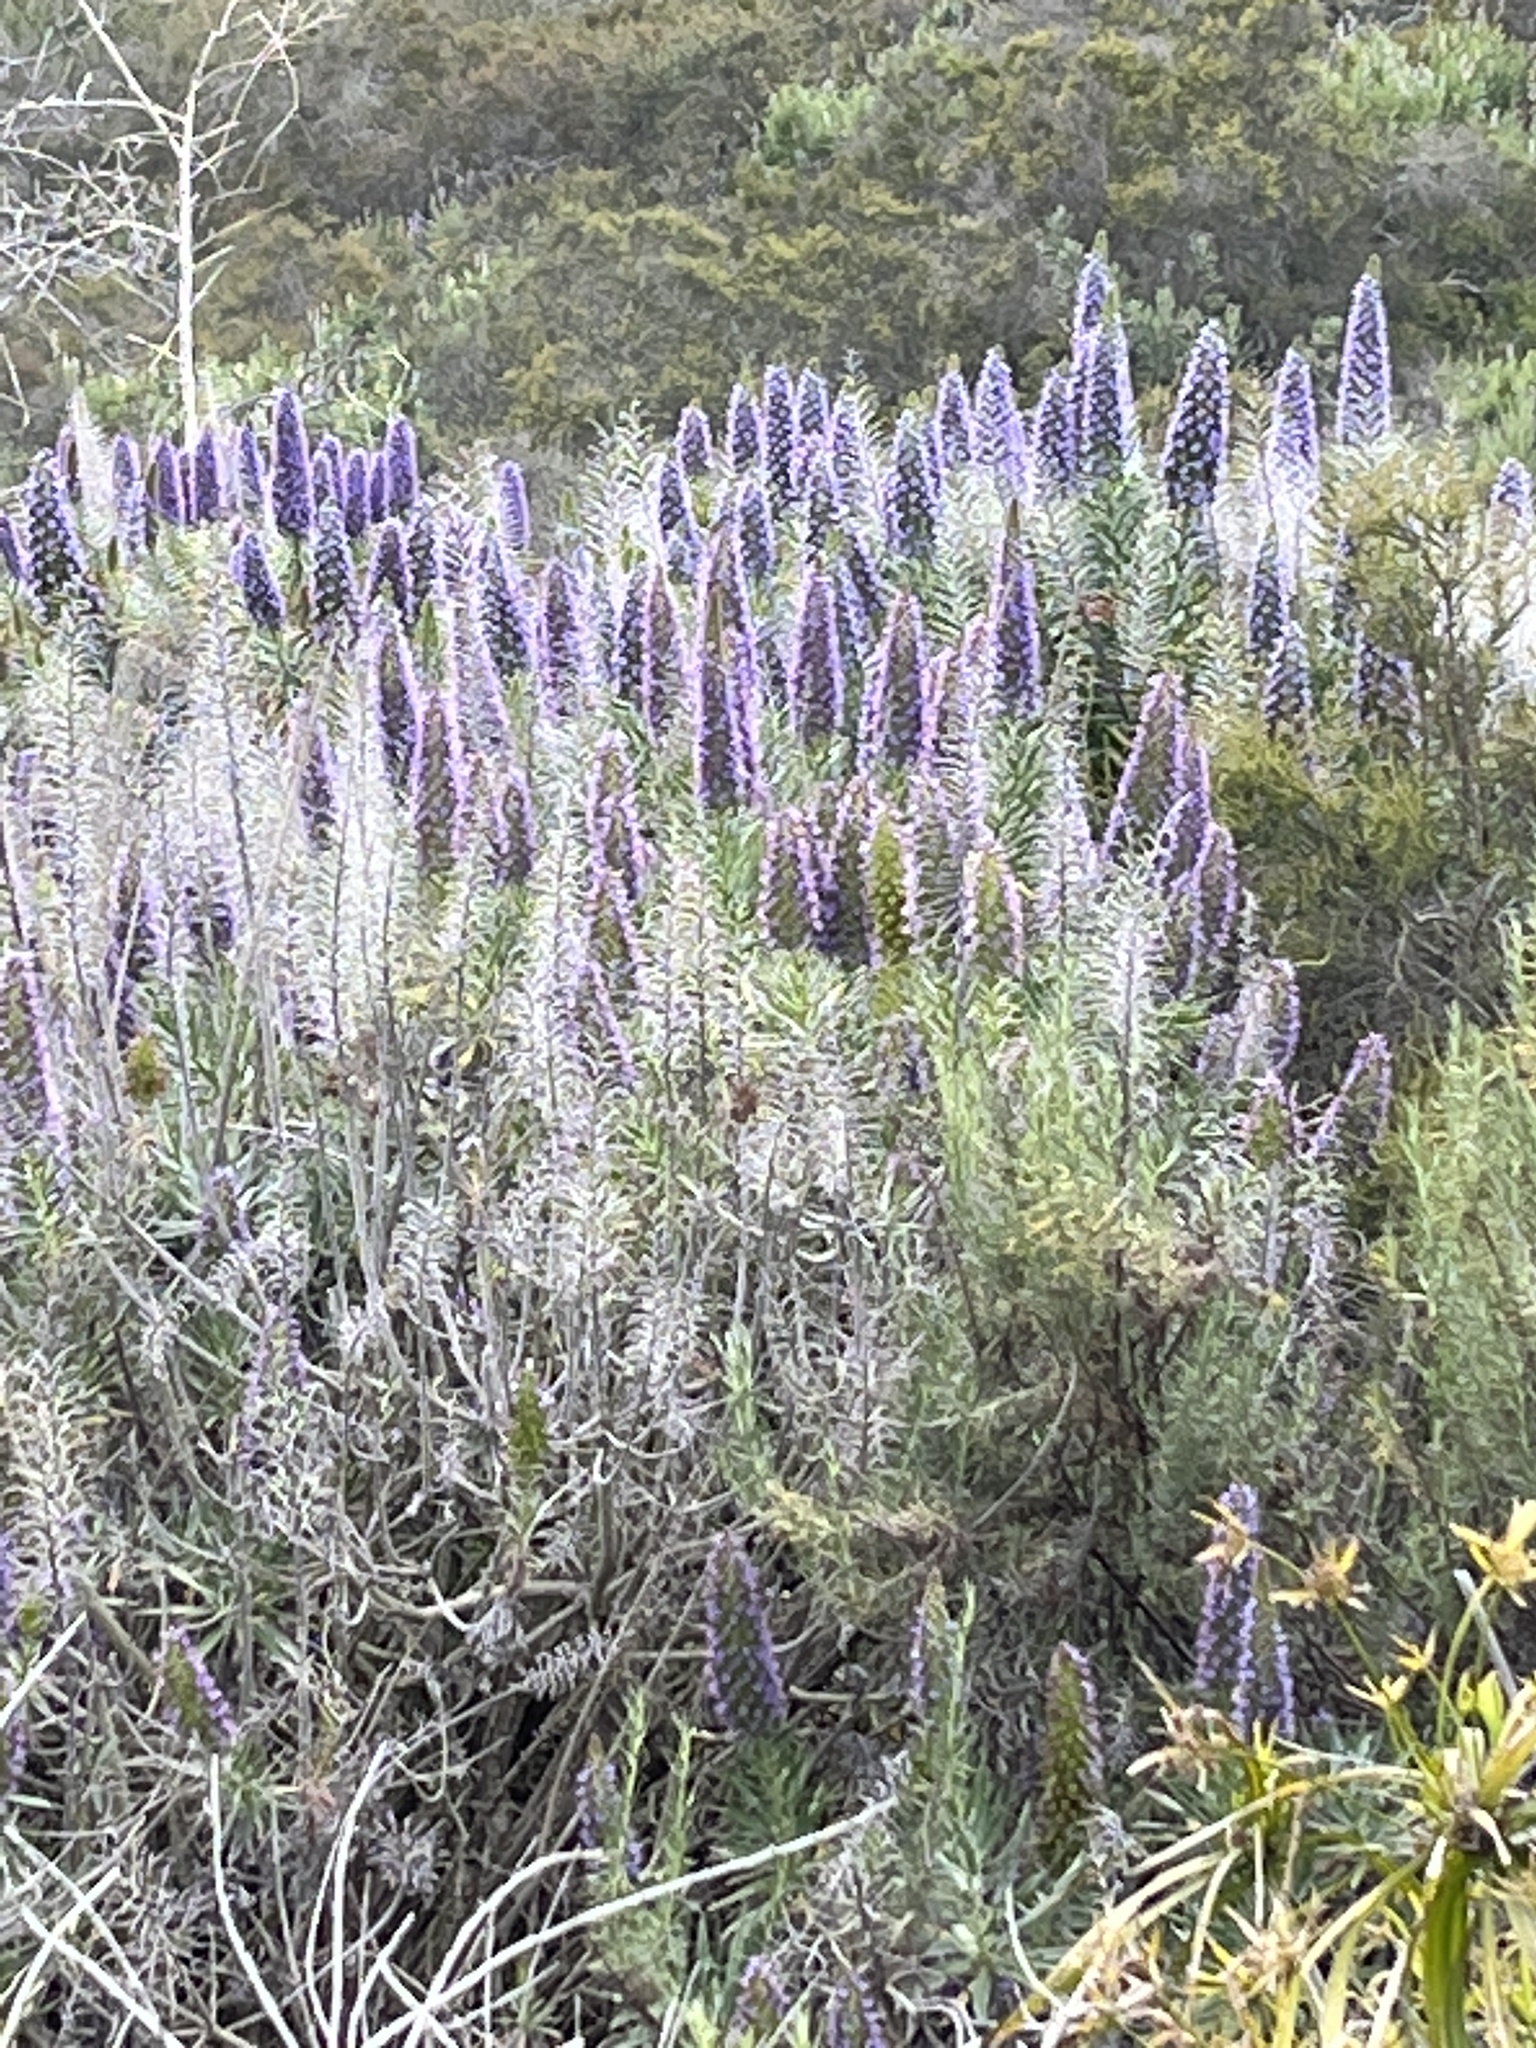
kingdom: Plantae
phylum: Tracheophyta
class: Magnoliopsida
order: Boraginales
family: Boraginaceae
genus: Echium
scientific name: Echium candicans
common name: Pride of madeira
